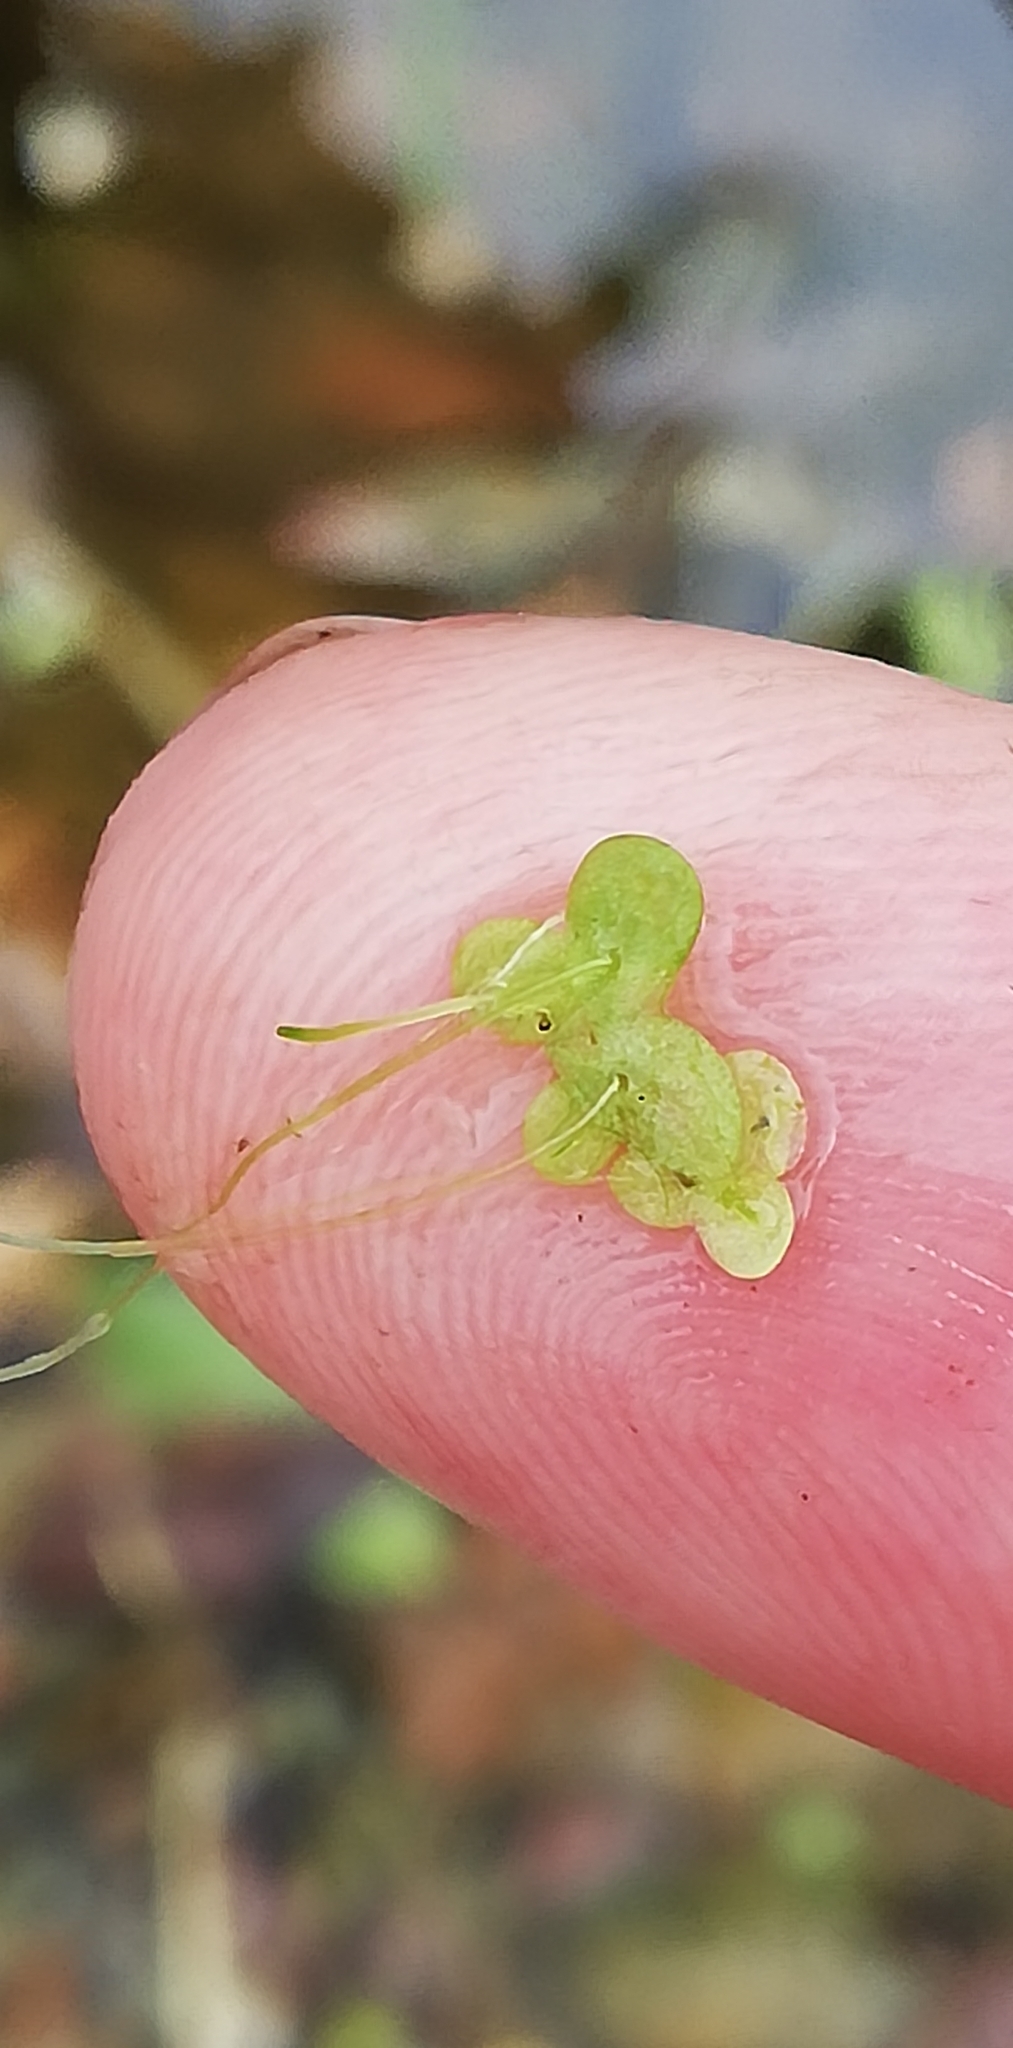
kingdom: Plantae
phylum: Tracheophyta
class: Liliopsida
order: Alismatales
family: Araceae
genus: Lemna
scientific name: Lemna minor
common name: Common duckweed
